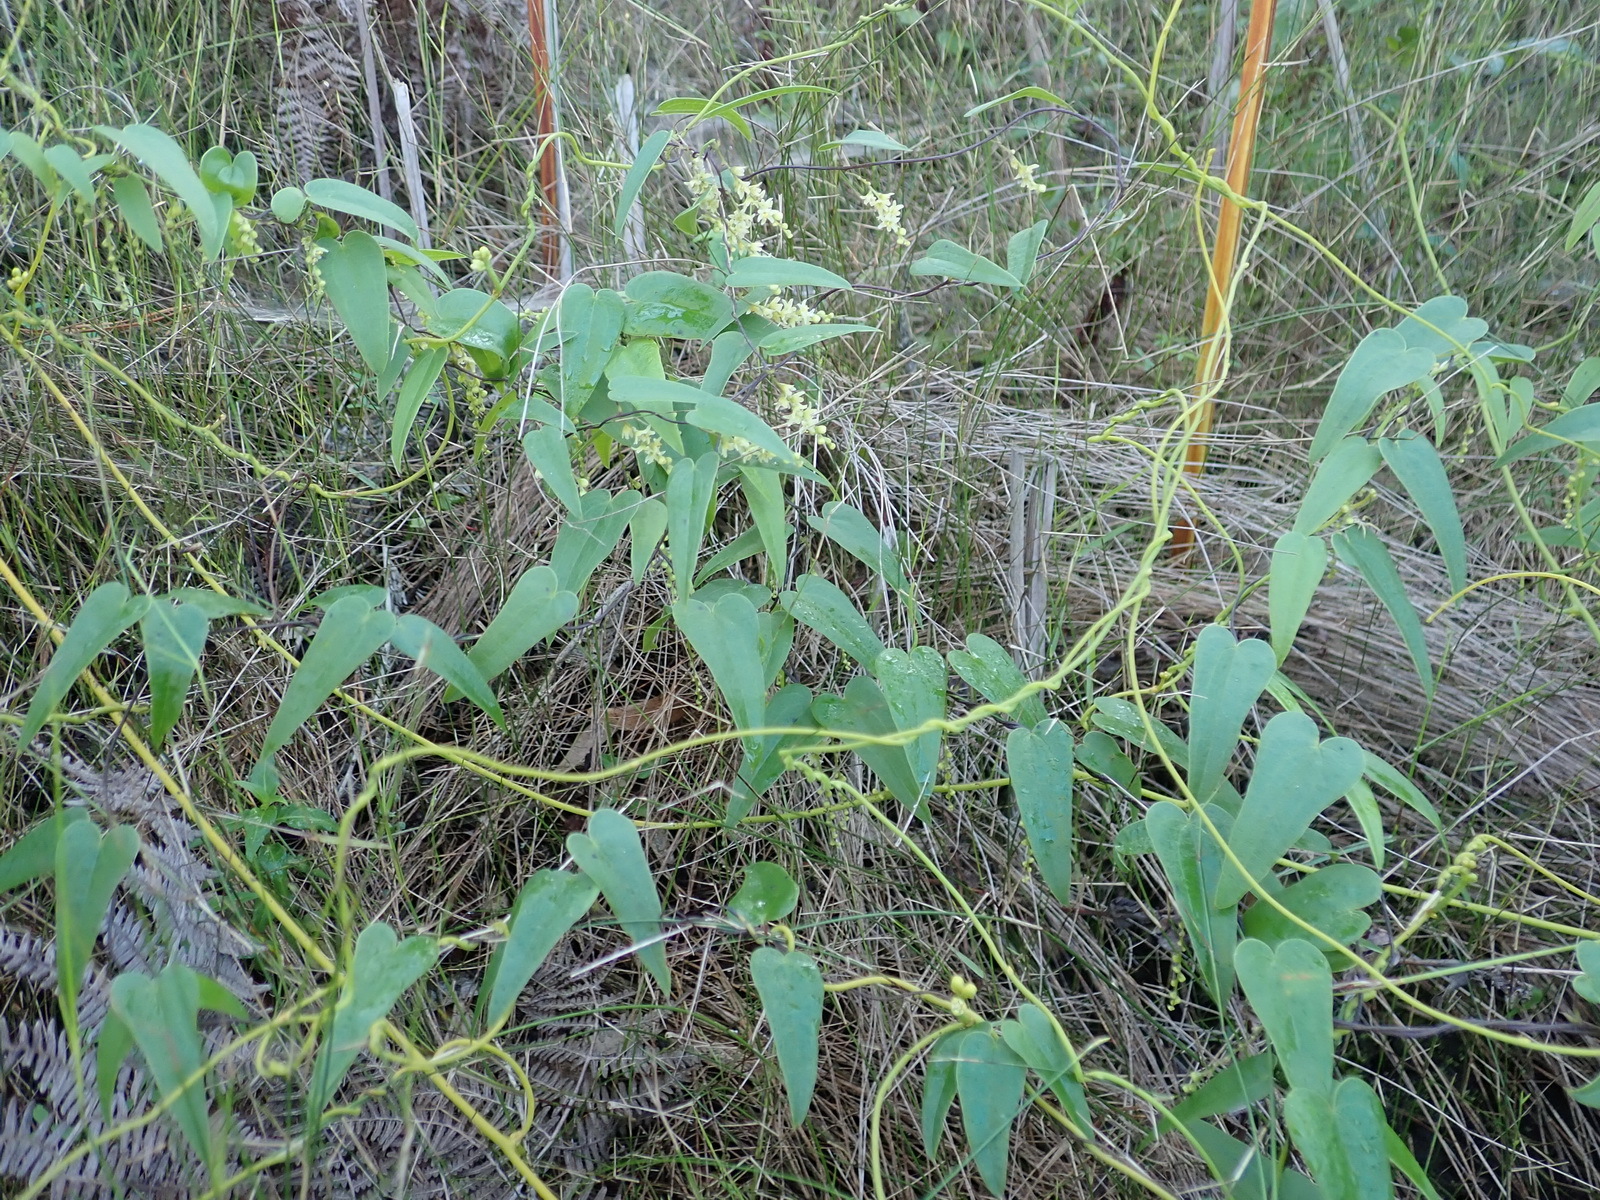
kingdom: Plantae
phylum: Tracheophyta
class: Liliopsida
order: Dioscoreales
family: Dioscoreaceae
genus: Dioscorea
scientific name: Dioscorea burchellii
